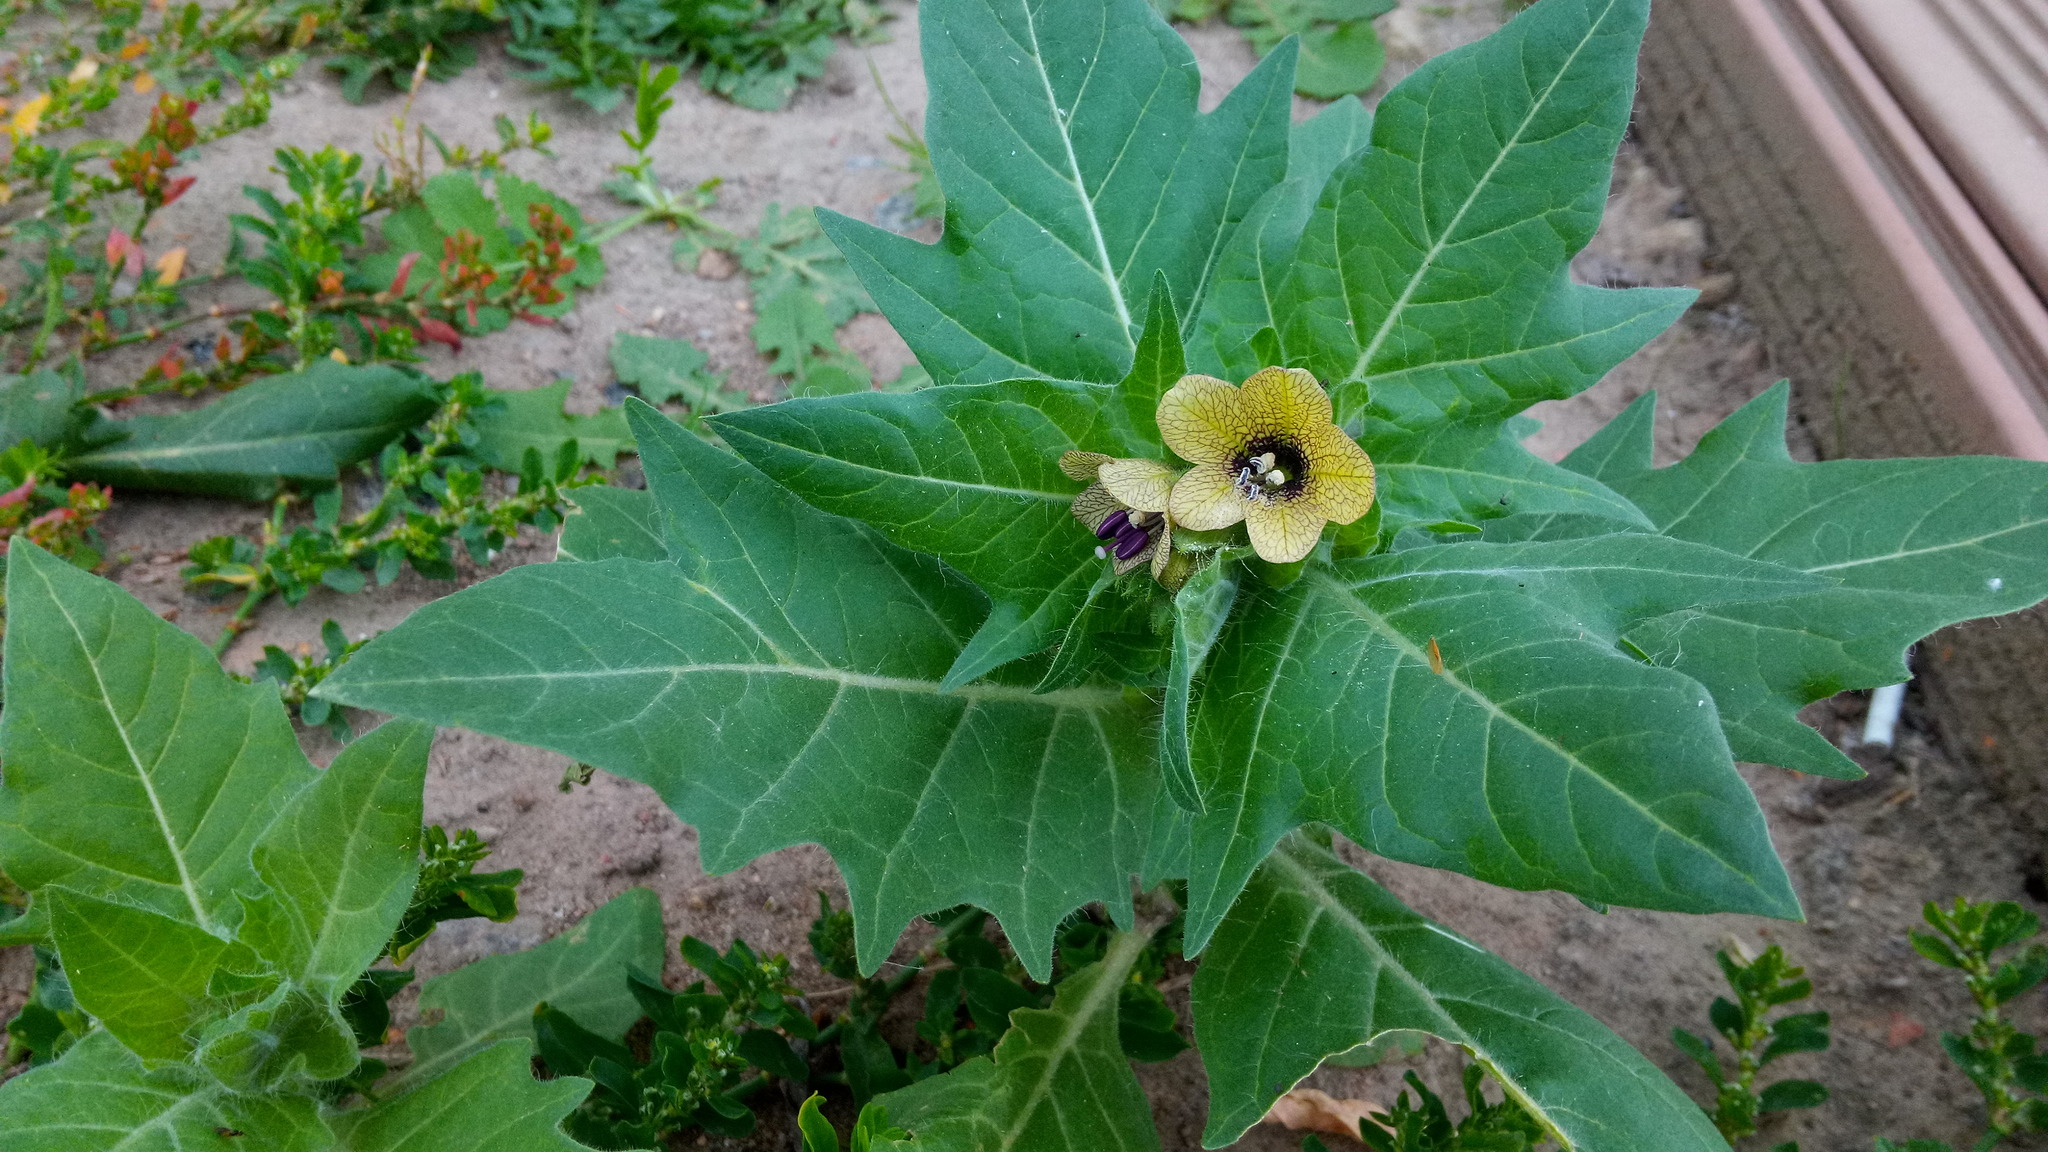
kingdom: Plantae
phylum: Tracheophyta
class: Magnoliopsida
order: Solanales
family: Solanaceae
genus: Hyoscyamus
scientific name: Hyoscyamus niger
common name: Henbane
